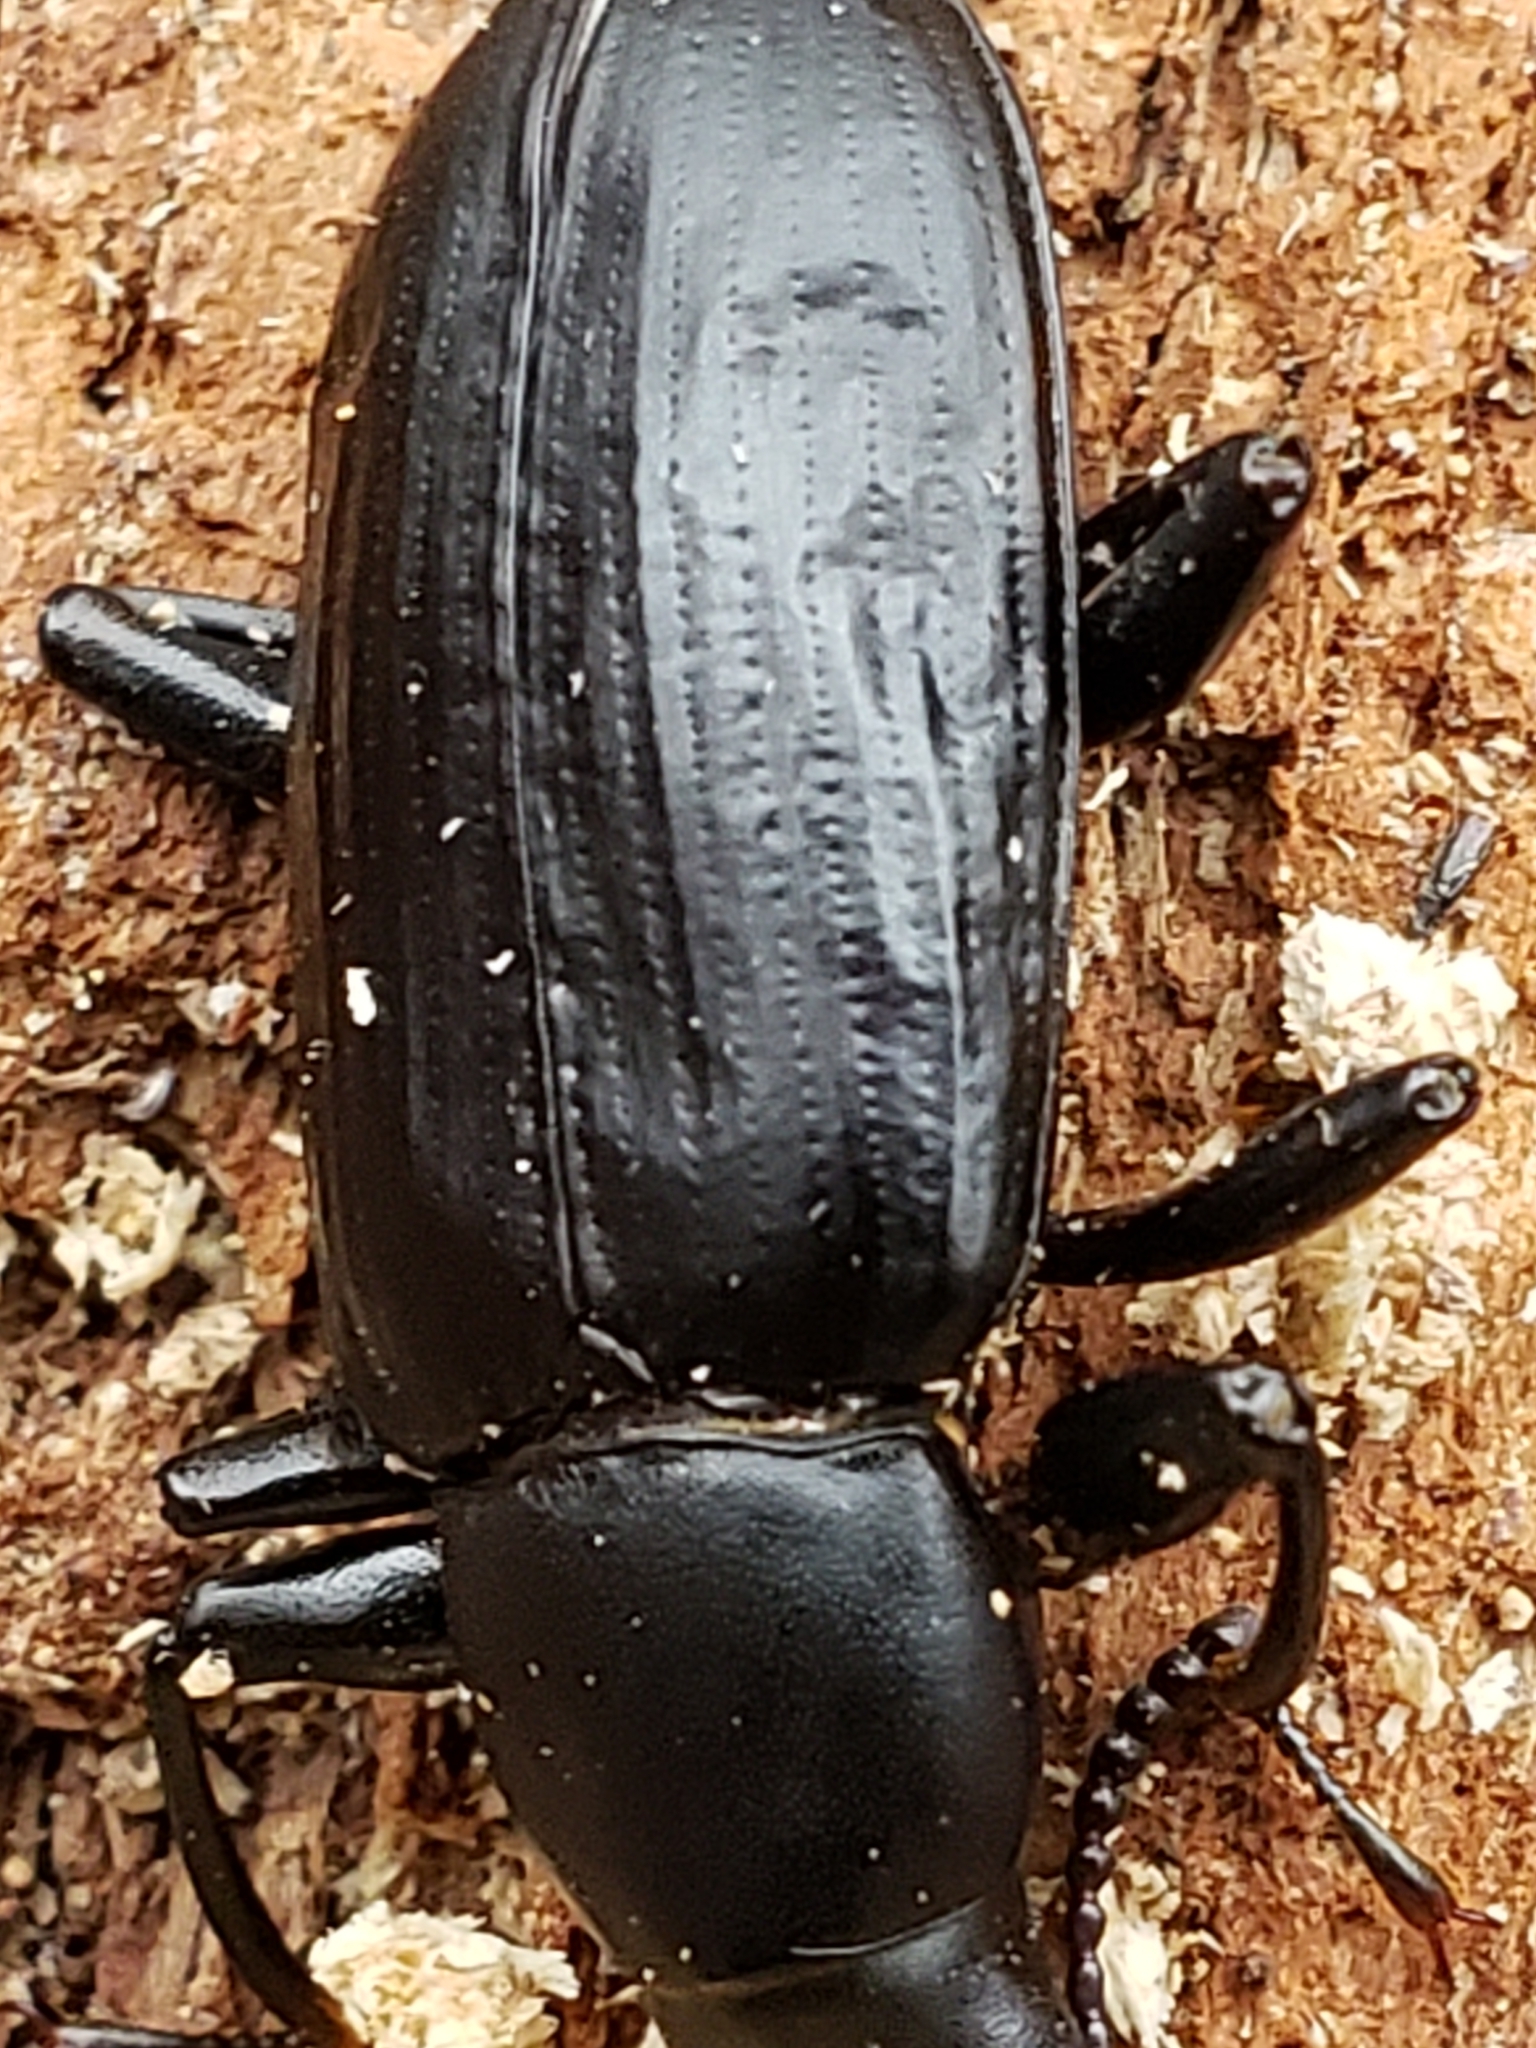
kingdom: Animalia
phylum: Arthropoda
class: Insecta
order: Coleoptera
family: Tenebrionidae
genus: Alobates
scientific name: Alobates pensylvanicus
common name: False mealworm beetle
